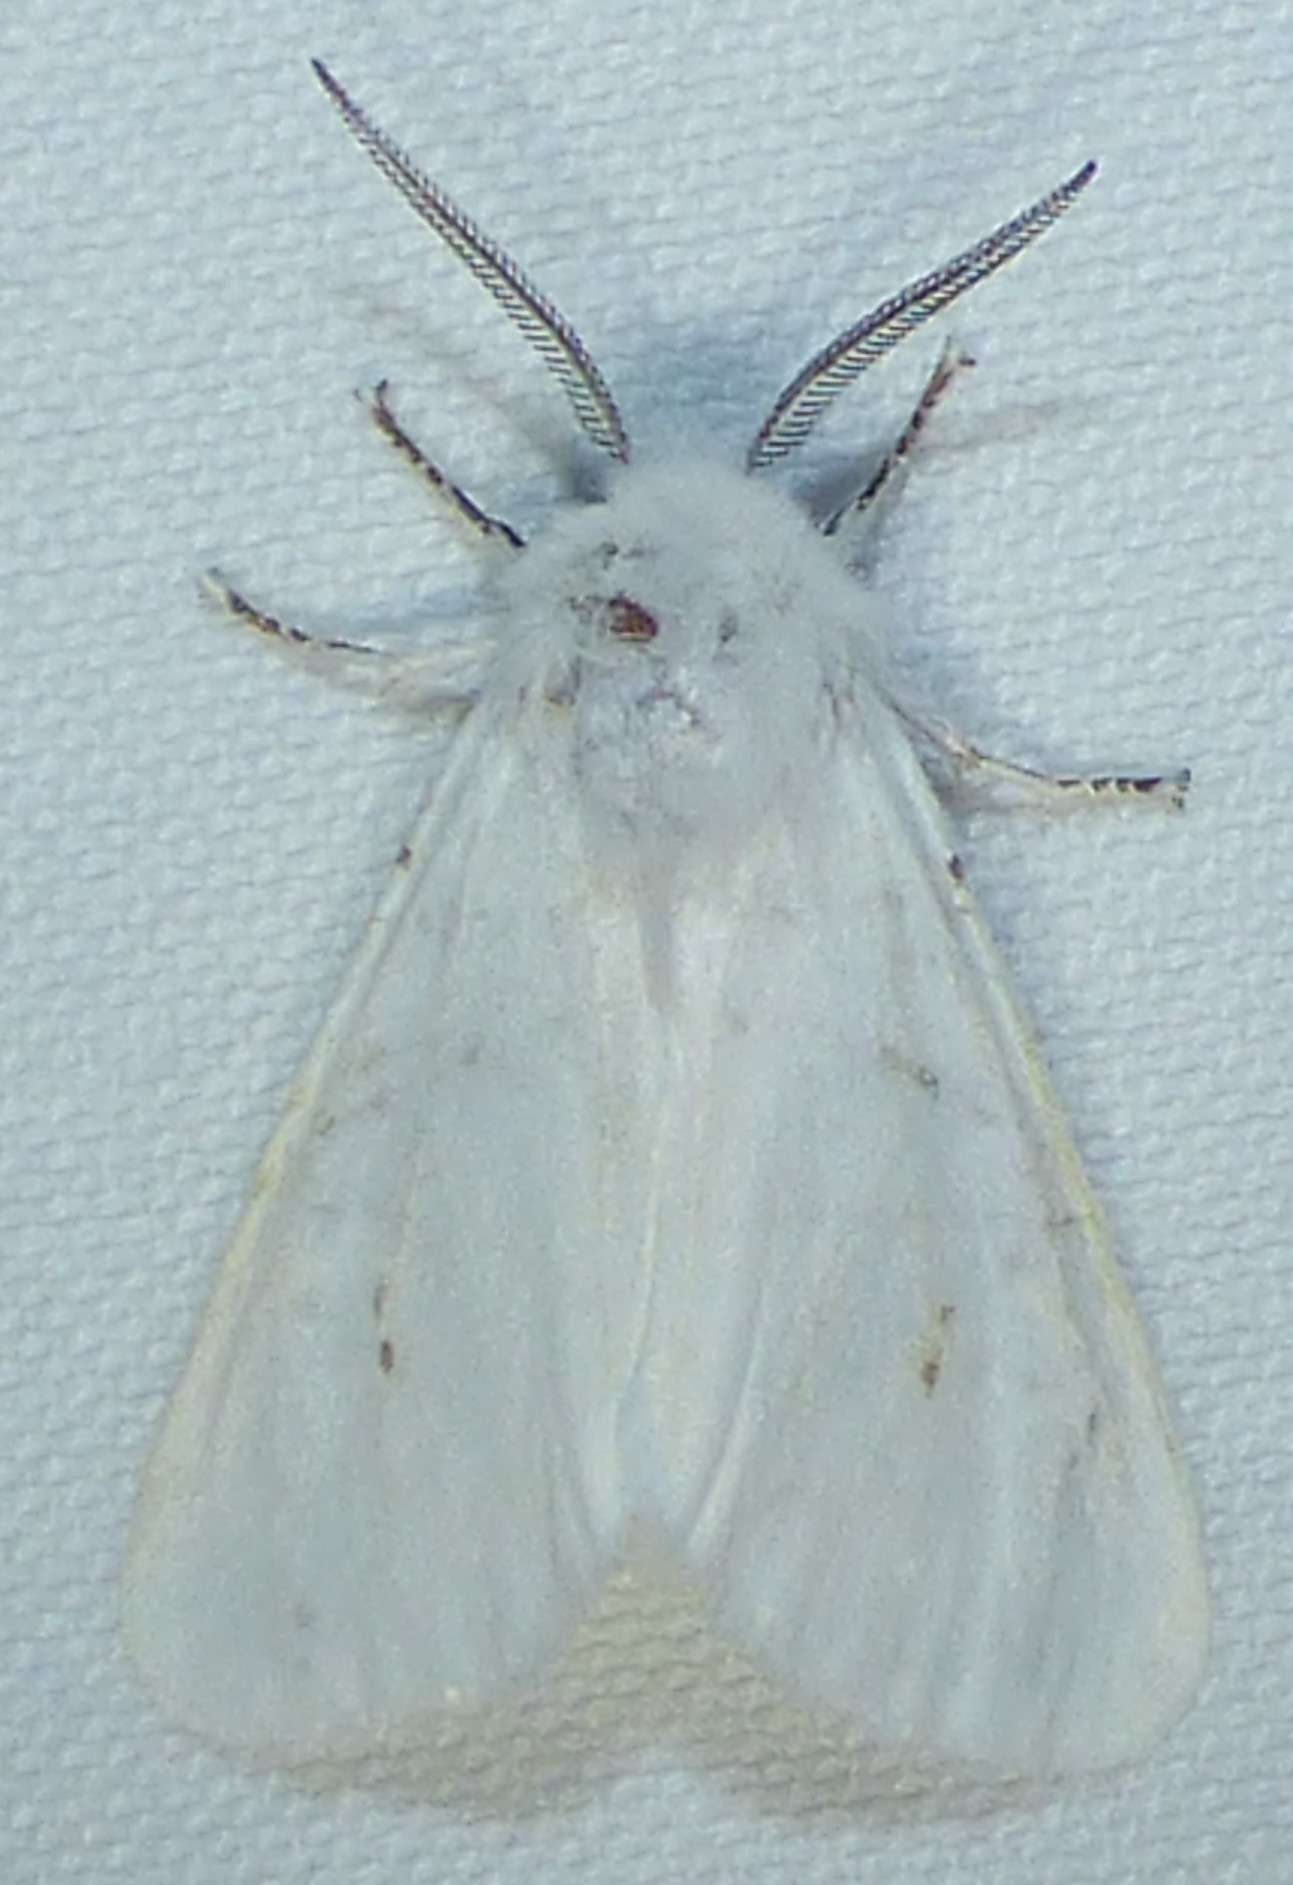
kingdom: Animalia
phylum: Arthropoda
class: Insecta
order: Lepidoptera
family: Erebidae
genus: Hyphantria
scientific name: Hyphantria cunea
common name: American white moth
